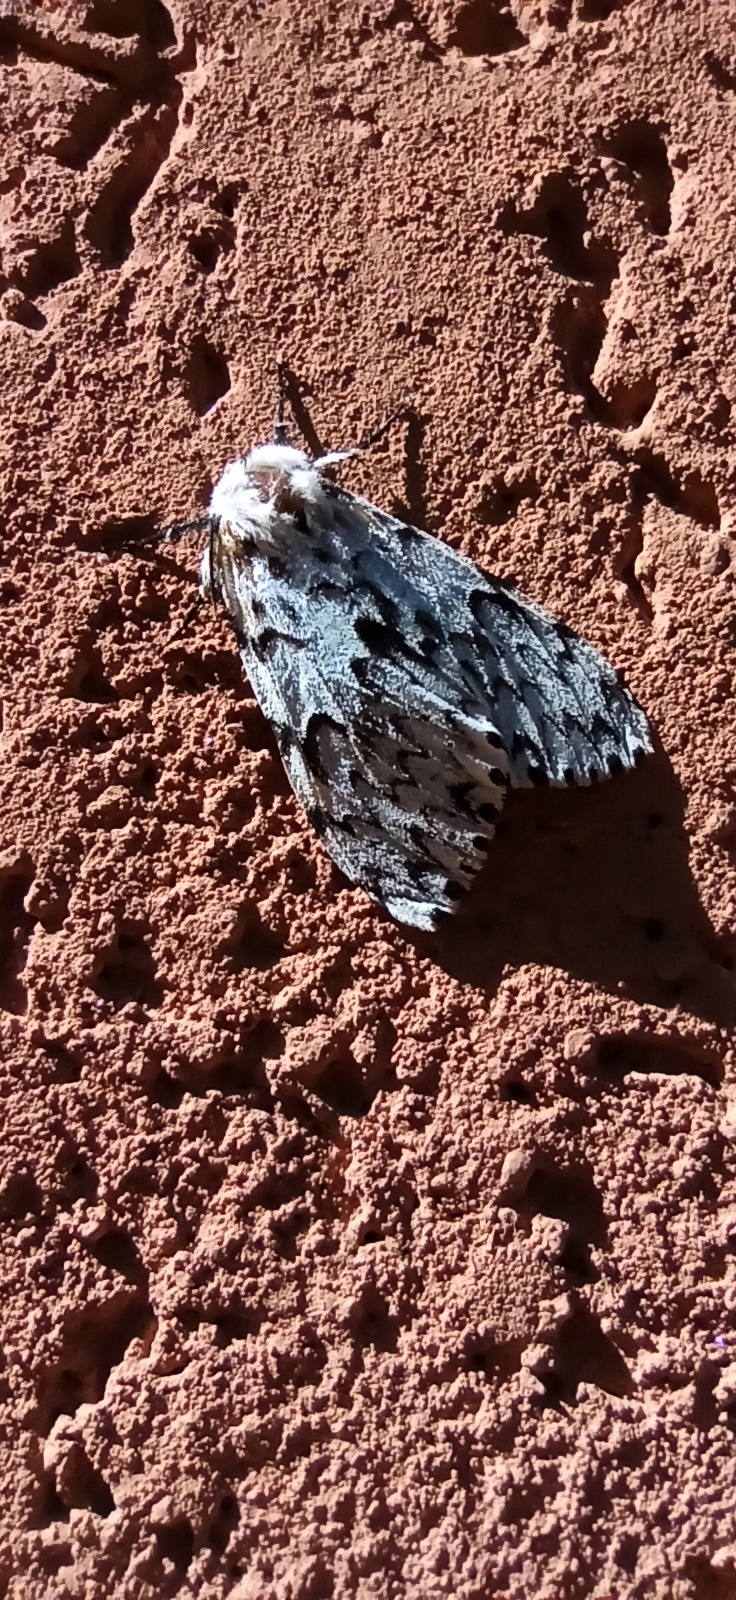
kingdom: Animalia
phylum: Arthropoda
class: Insecta
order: Lepidoptera
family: Erebidae
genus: Lymantria
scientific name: Lymantria monacha
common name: Black arches
